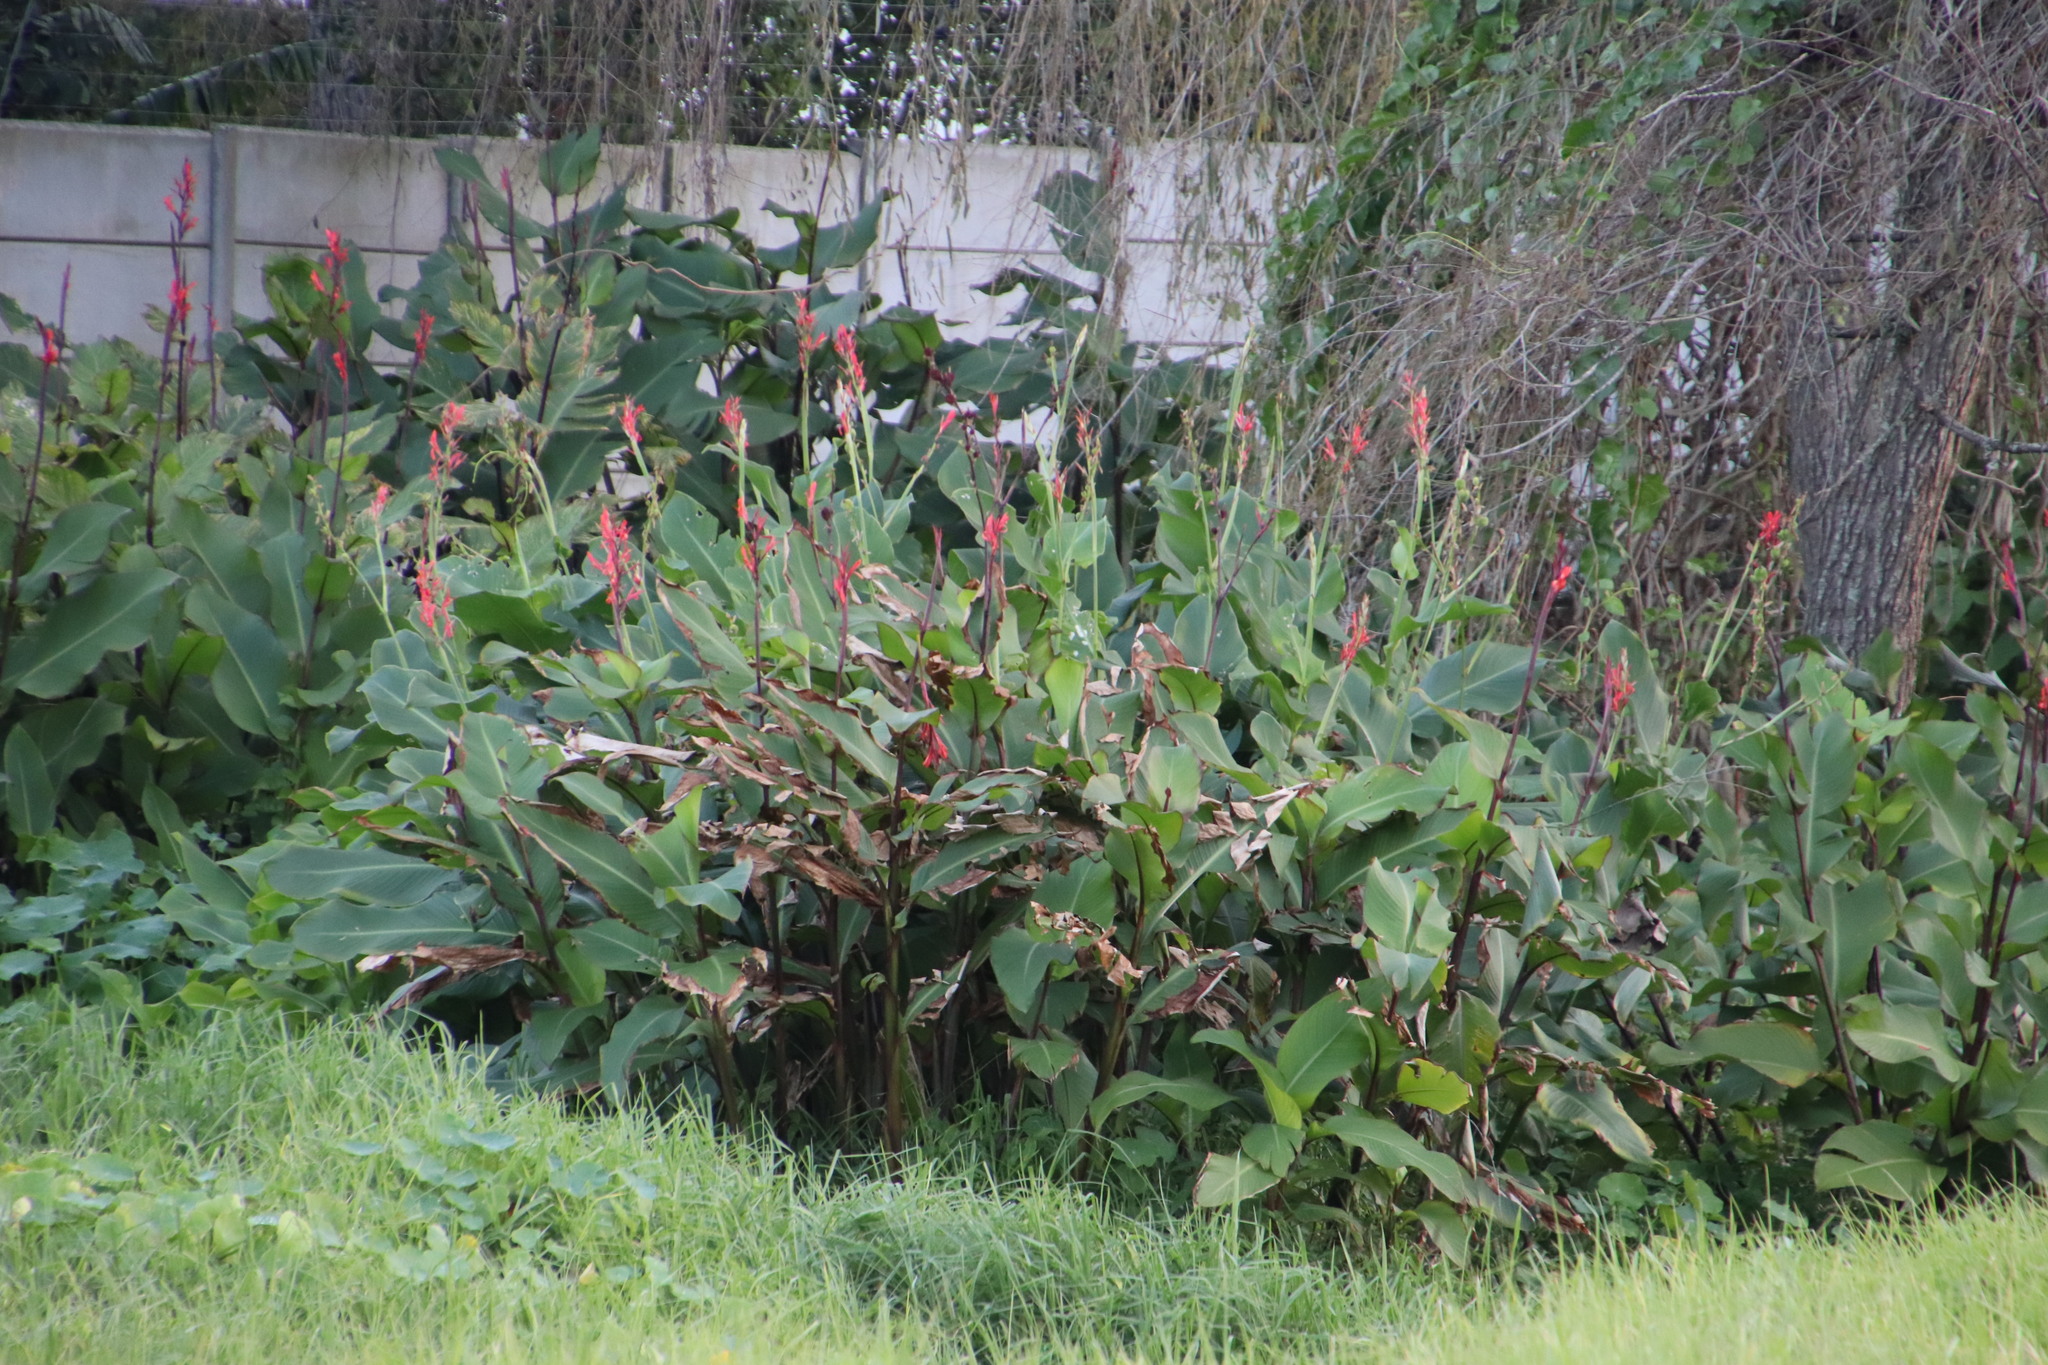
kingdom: Plantae
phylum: Tracheophyta
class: Liliopsida
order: Zingiberales
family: Cannaceae
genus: Canna
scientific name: Canna indica
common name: Indian shot
